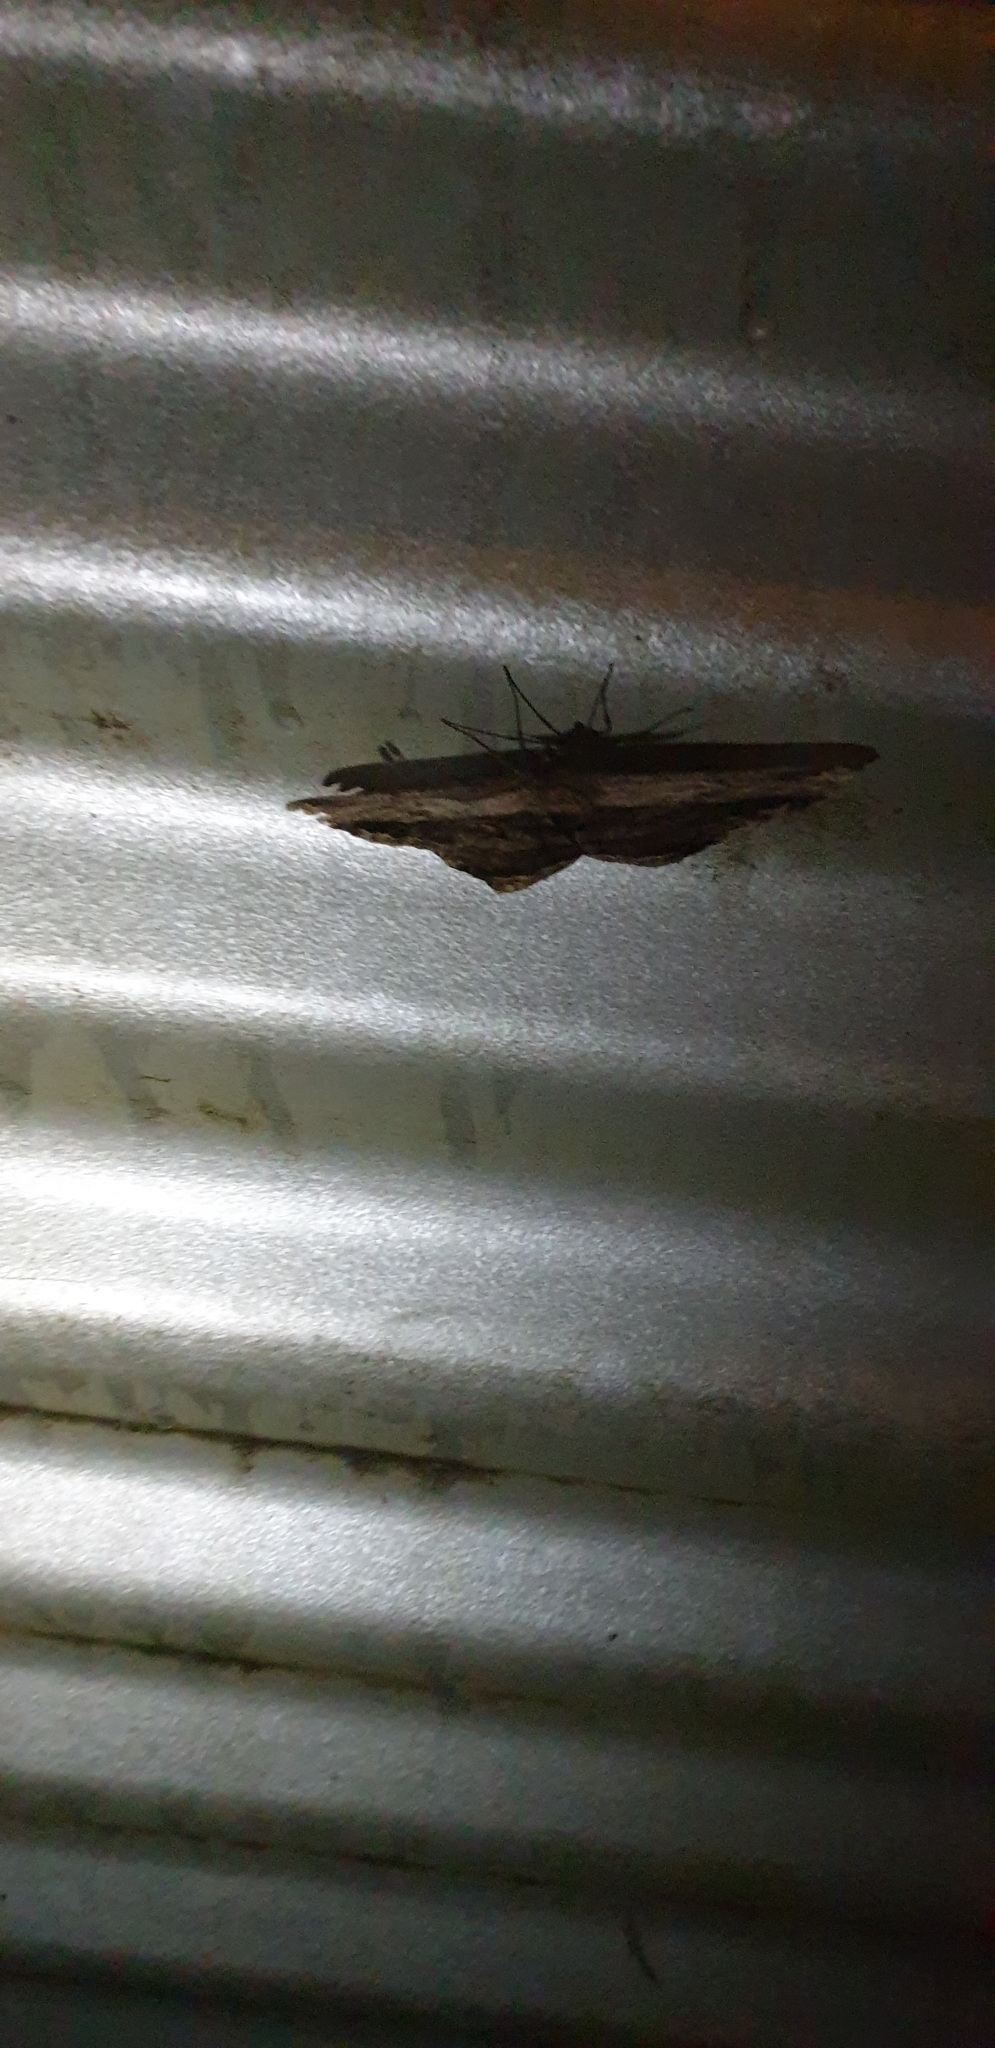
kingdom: Animalia
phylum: Arthropoda
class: Insecta
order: Lepidoptera
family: Geometridae
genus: Chorodna
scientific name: Chorodna strixaria
